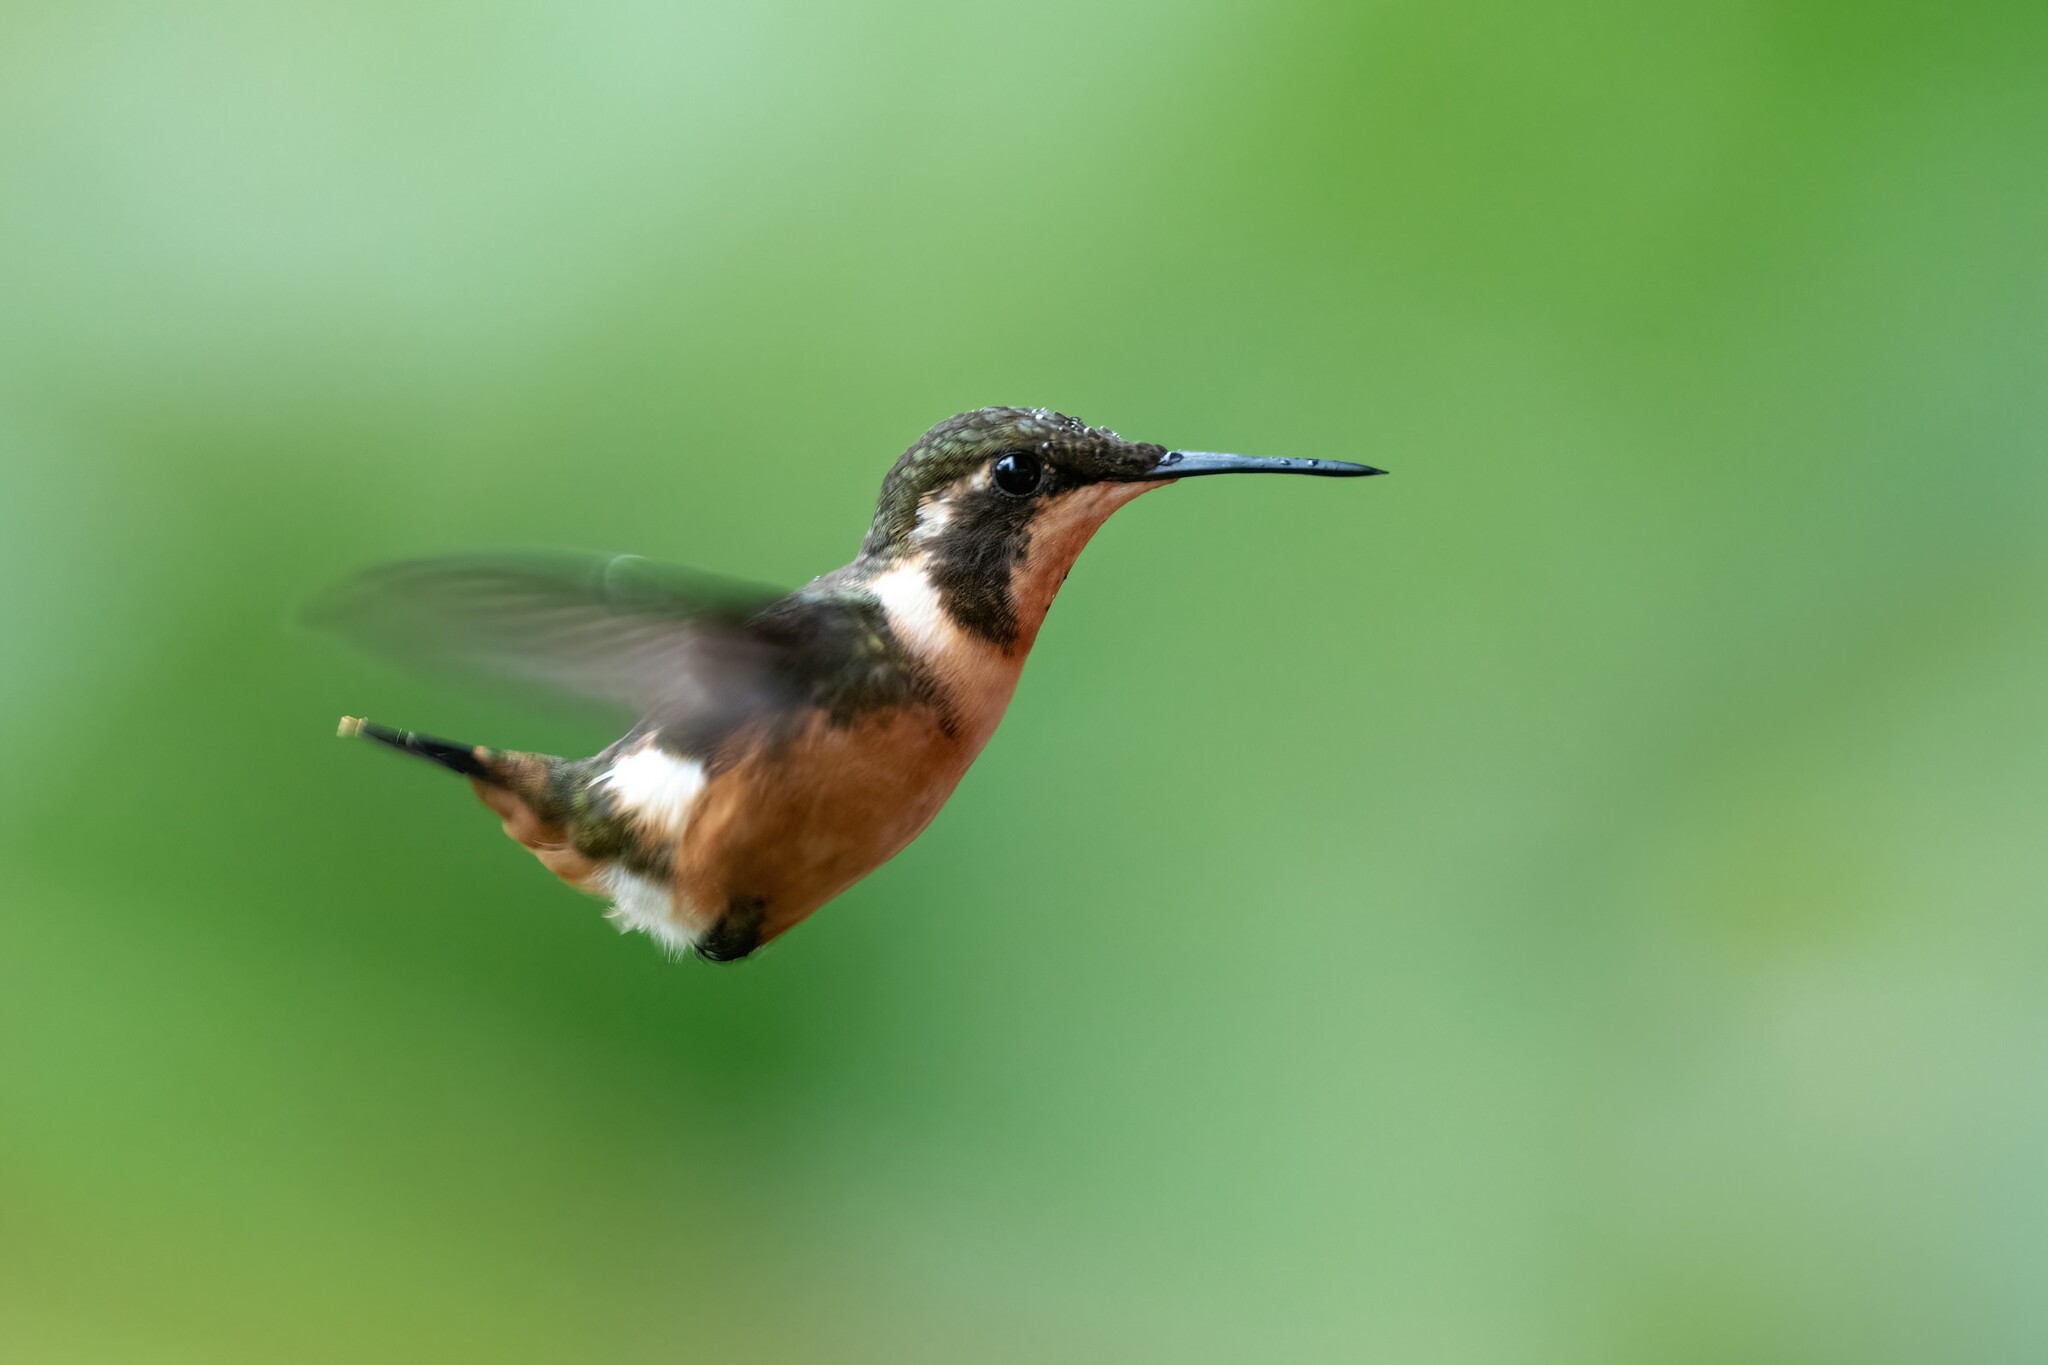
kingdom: Animalia
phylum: Chordata
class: Aves
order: Apodiformes
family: Trochilidae
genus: Calliphlox
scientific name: Calliphlox mitchellii
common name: Purple-throated woodstar
